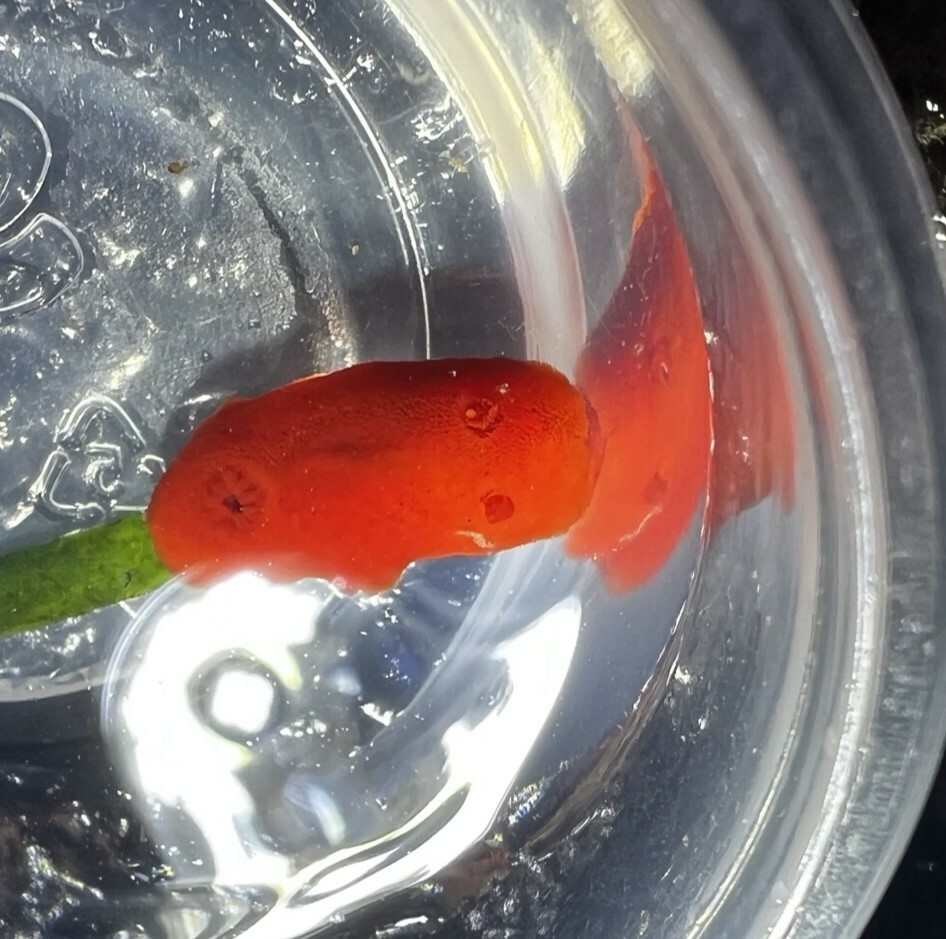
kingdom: Animalia
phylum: Mollusca
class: Gastropoda
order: Nudibranchia
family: Discodorididae
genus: Rostanga
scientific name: Rostanga pulchra
